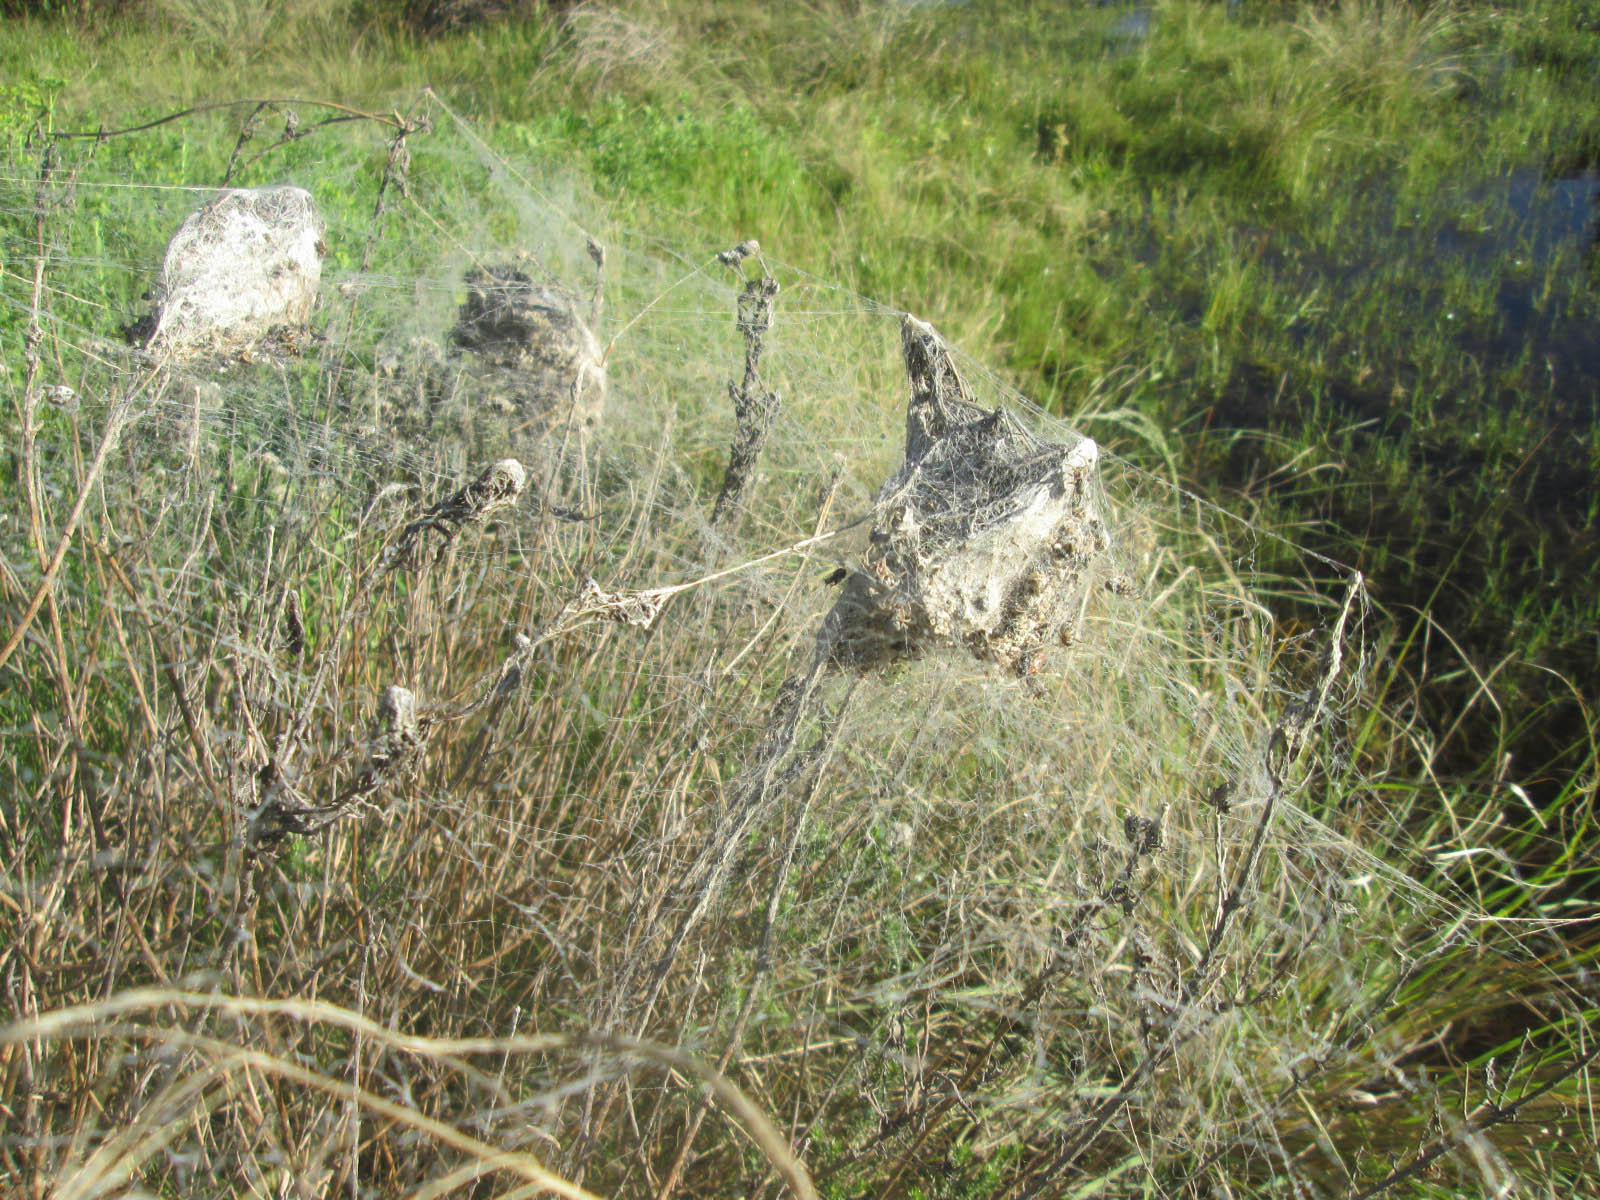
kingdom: Animalia
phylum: Arthropoda
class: Arachnida
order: Araneae
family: Eresidae
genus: Stegodyphus
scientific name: Stegodyphus dumicola
